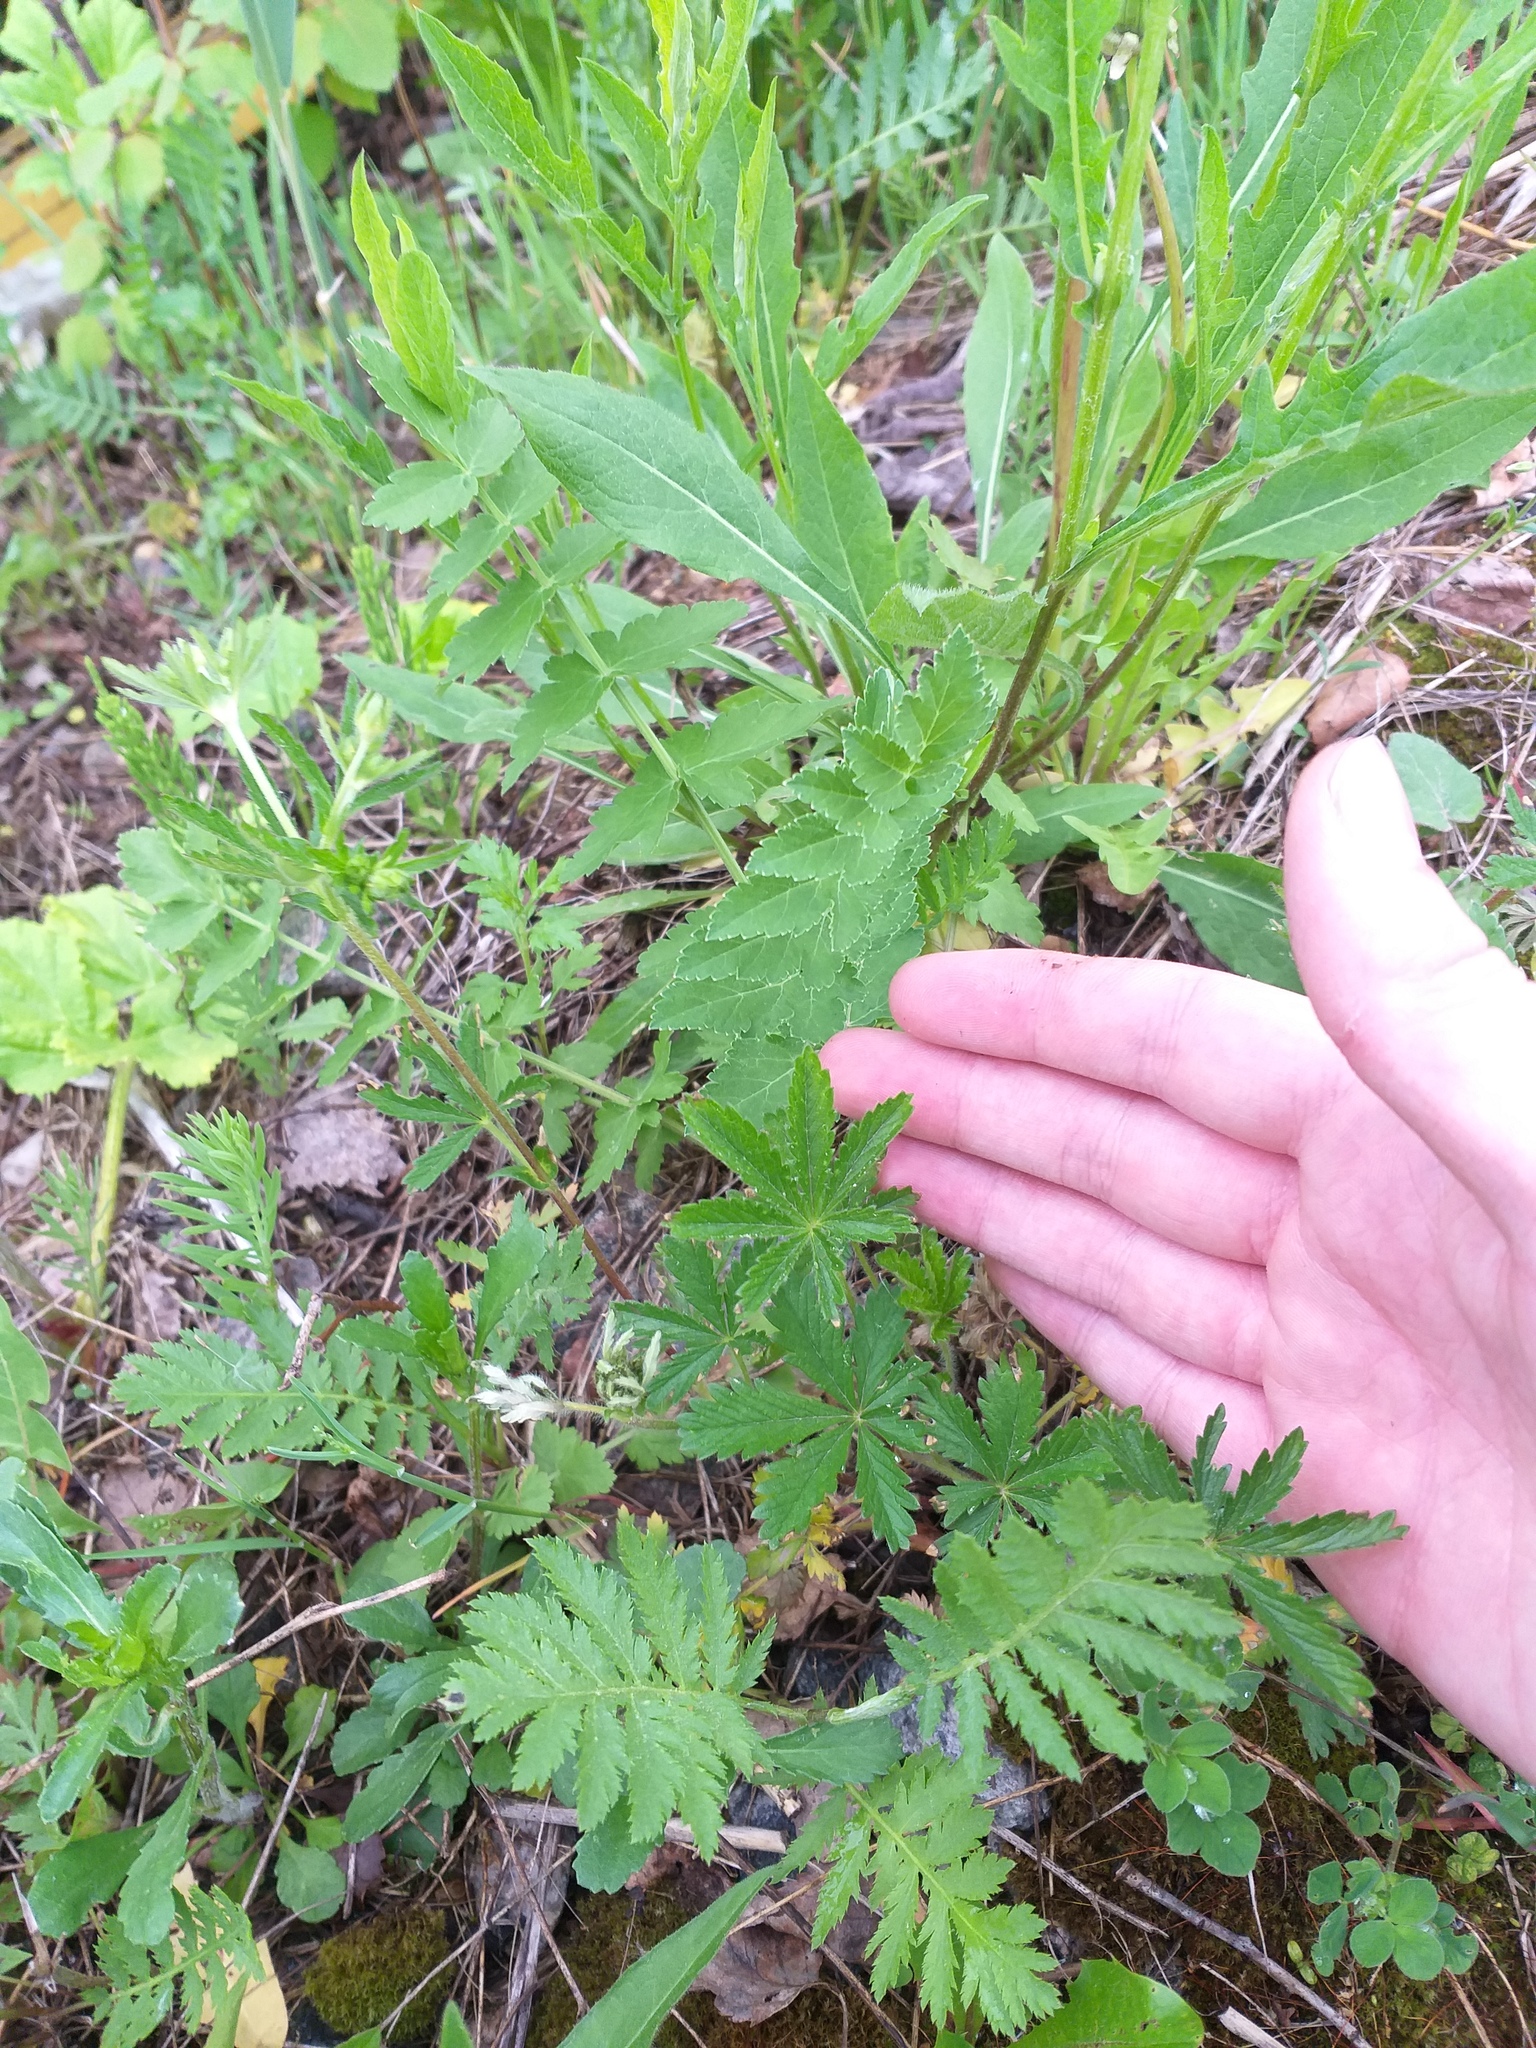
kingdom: Plantae
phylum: Tracheophyta
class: Magnoliopsida
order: Rosales
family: Rosaceae
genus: Potentilla
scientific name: Potentilla thuringiaca
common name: European cinquefoil
